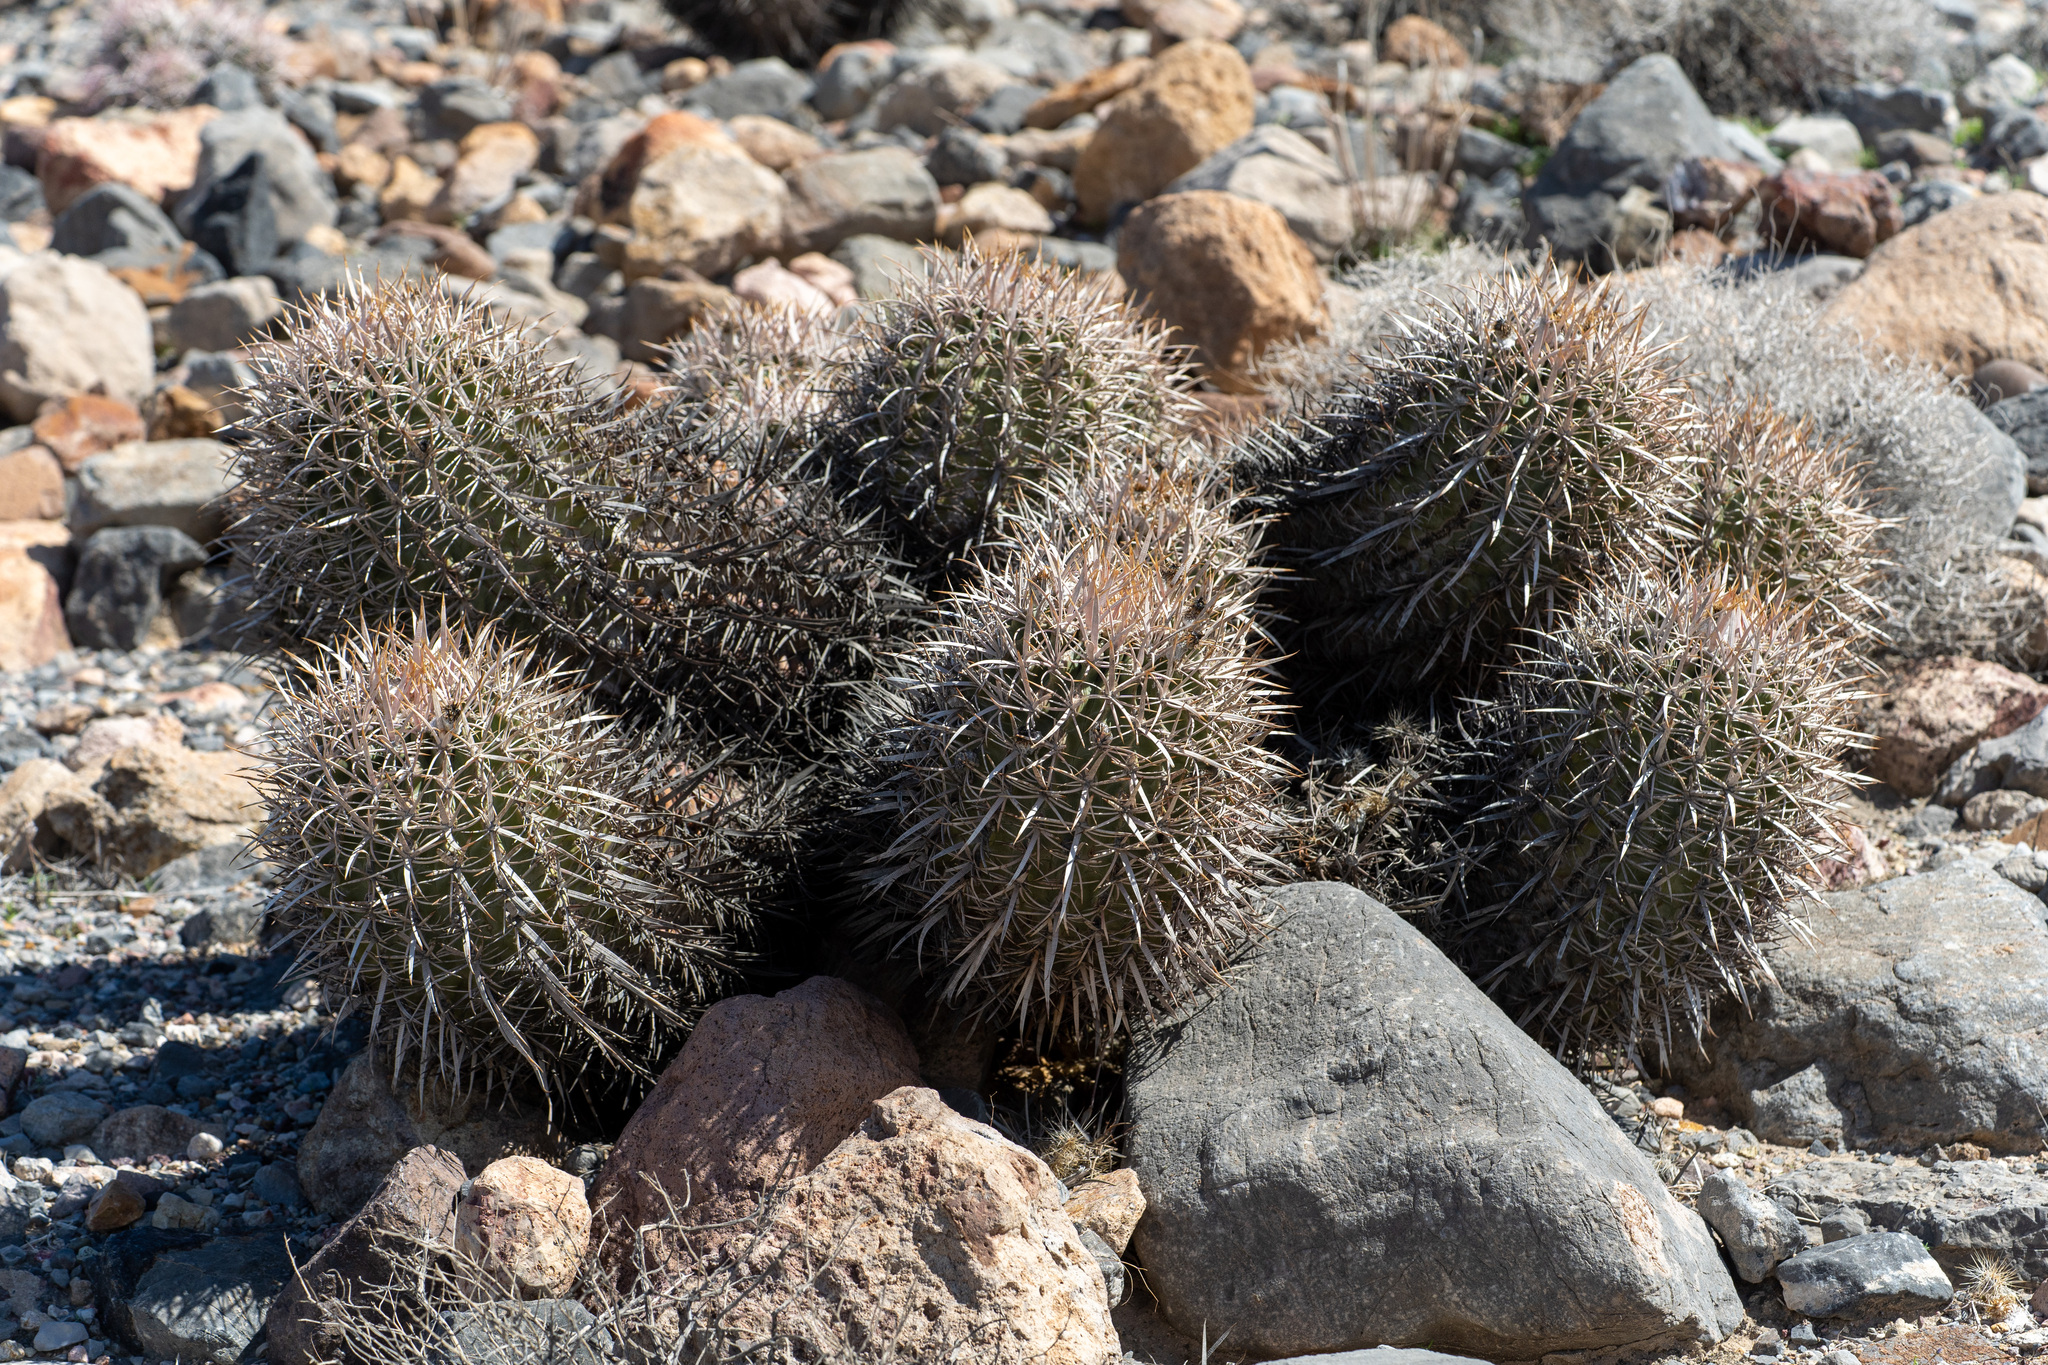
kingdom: Plantae
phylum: Tracheophyta
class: Magnoliopsida
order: Caryophyllales
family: Cactaceae
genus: Echinocactus
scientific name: Echinocactus polycephalus
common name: Cottontop cactus
